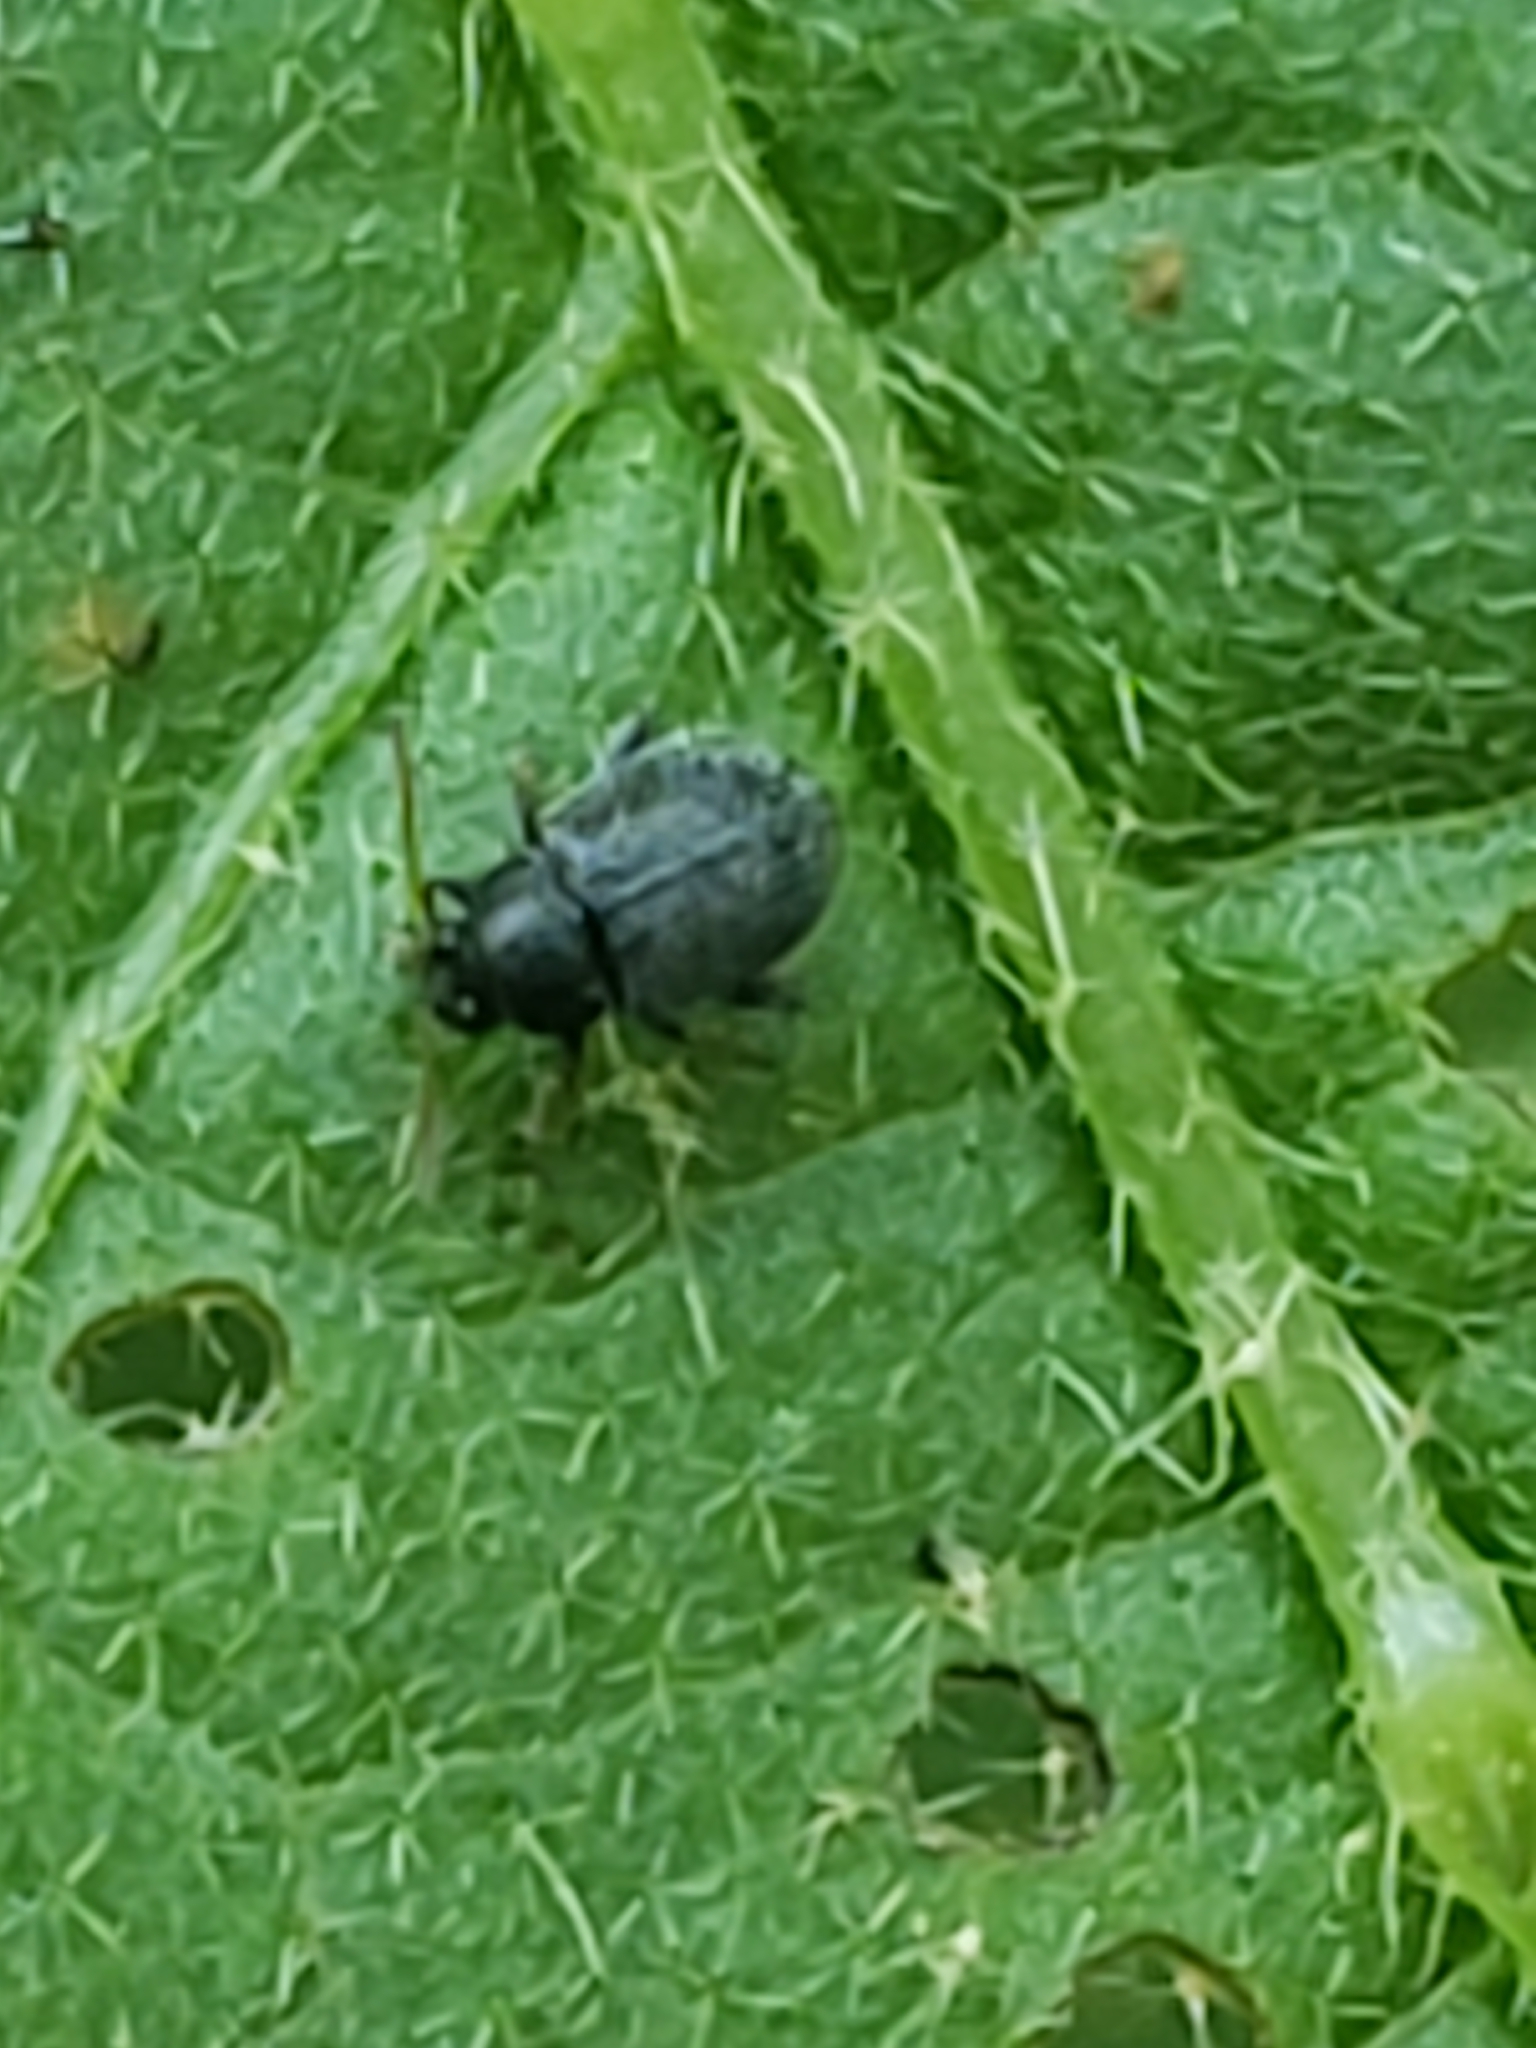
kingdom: Animalia
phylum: Arthropoda
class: Insecta
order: Coleoptera
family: Chrysomelidae
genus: Epitrix
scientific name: Epitrix fuscula
